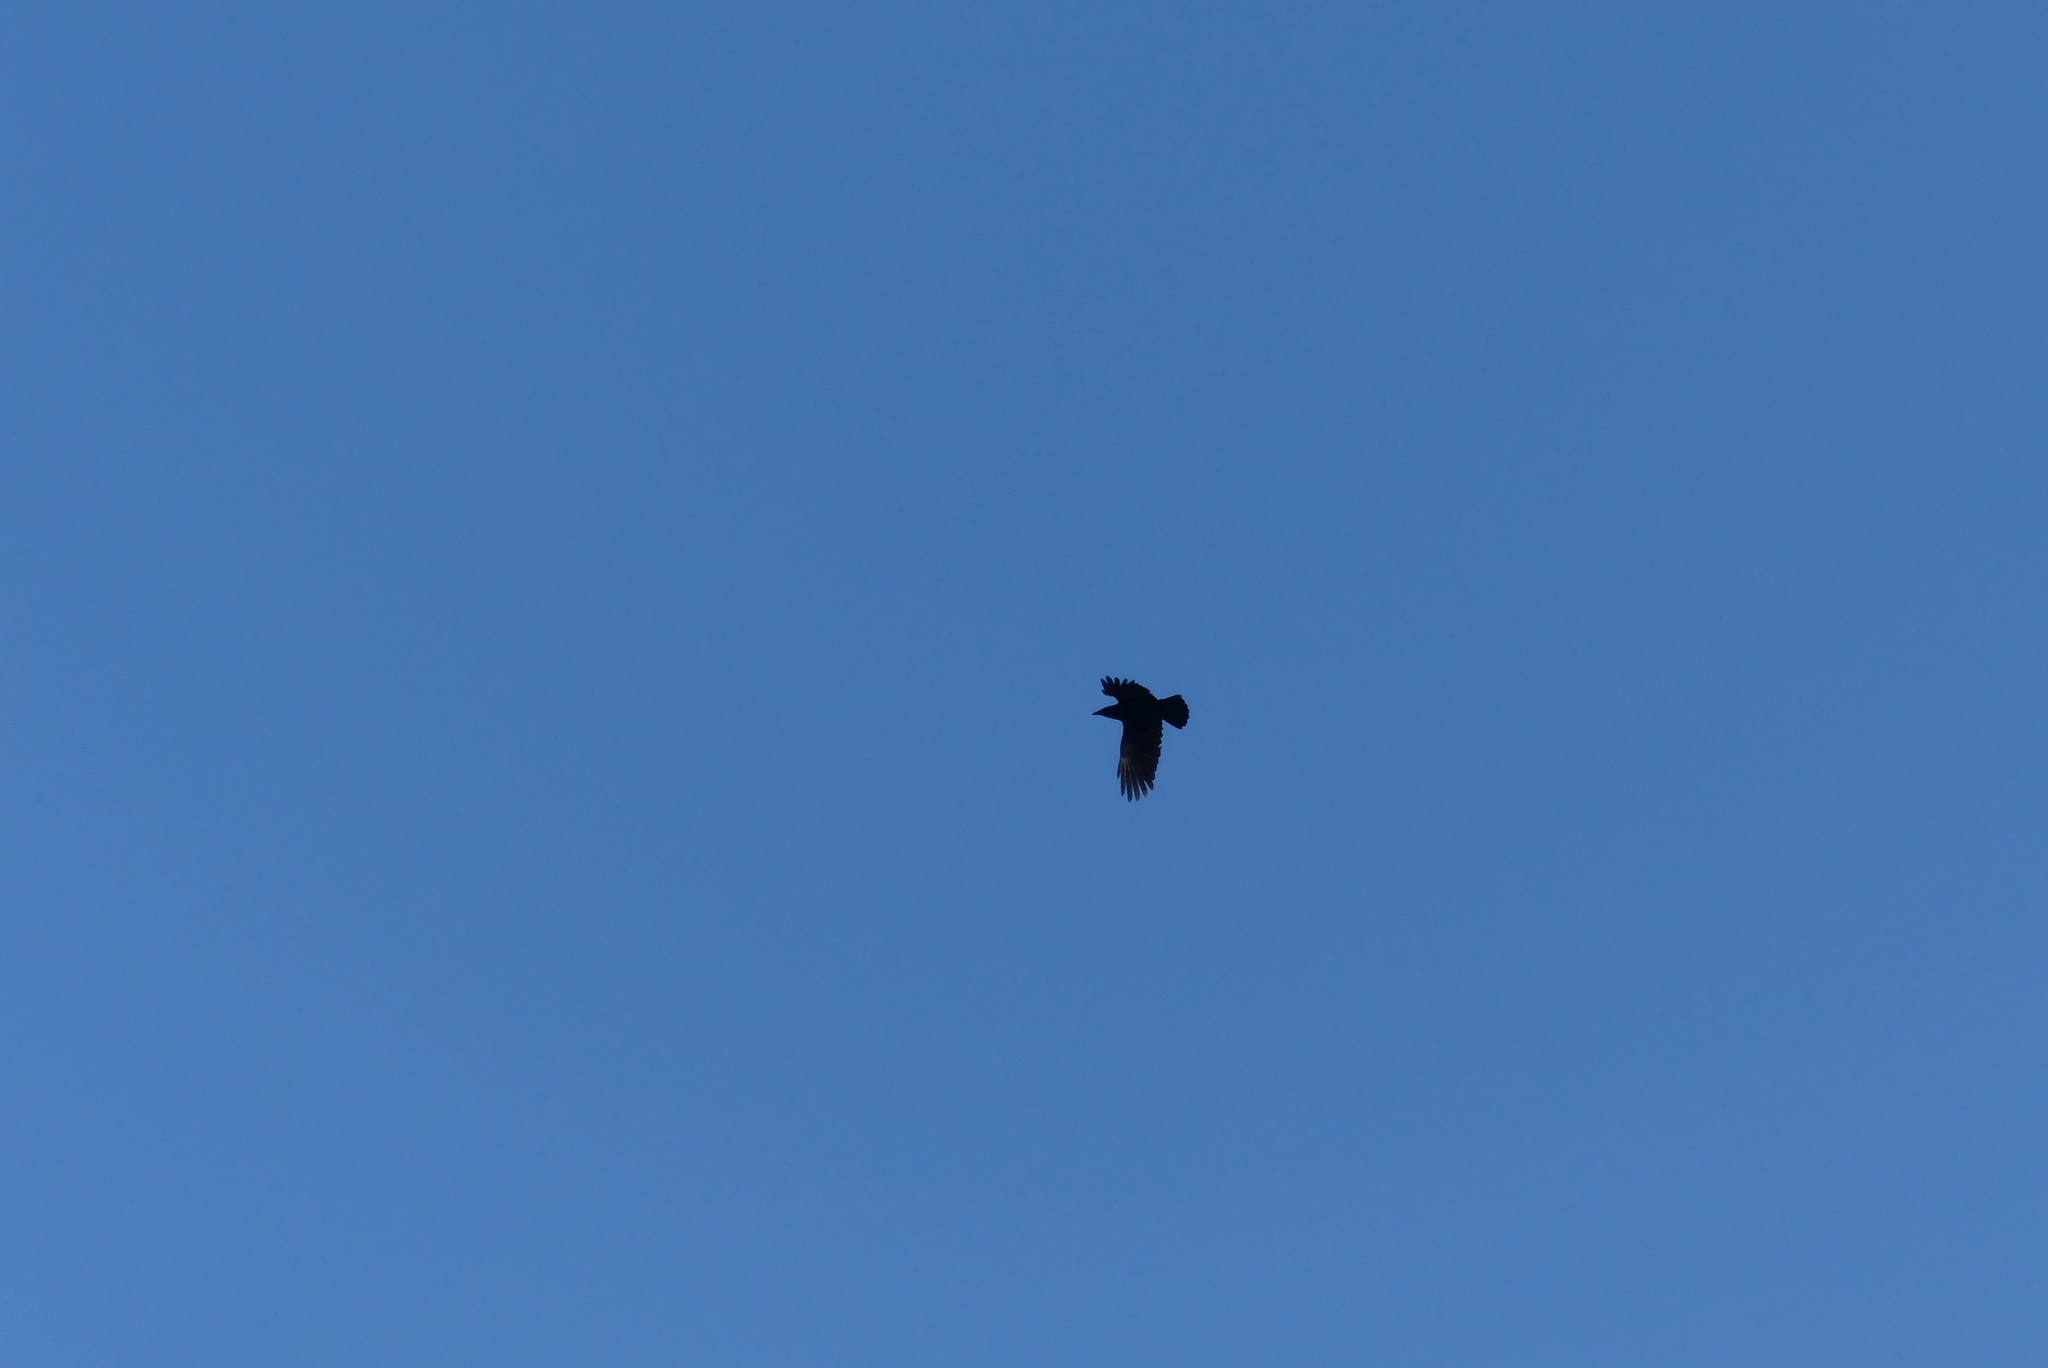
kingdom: Animalia
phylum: Chordata
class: Aves
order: Passeriformes
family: Corvidae
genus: Corvus
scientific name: Corvus brachyrhynchos
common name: American crow
